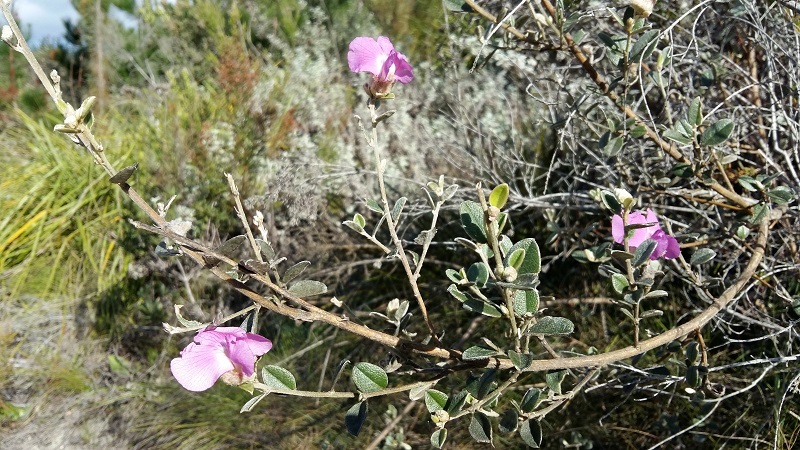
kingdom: Plantae
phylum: Tracheophyta
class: Magnoliopsida
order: Fabales
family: Fabaceae
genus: Podalyria
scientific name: Podalyria burchellii
